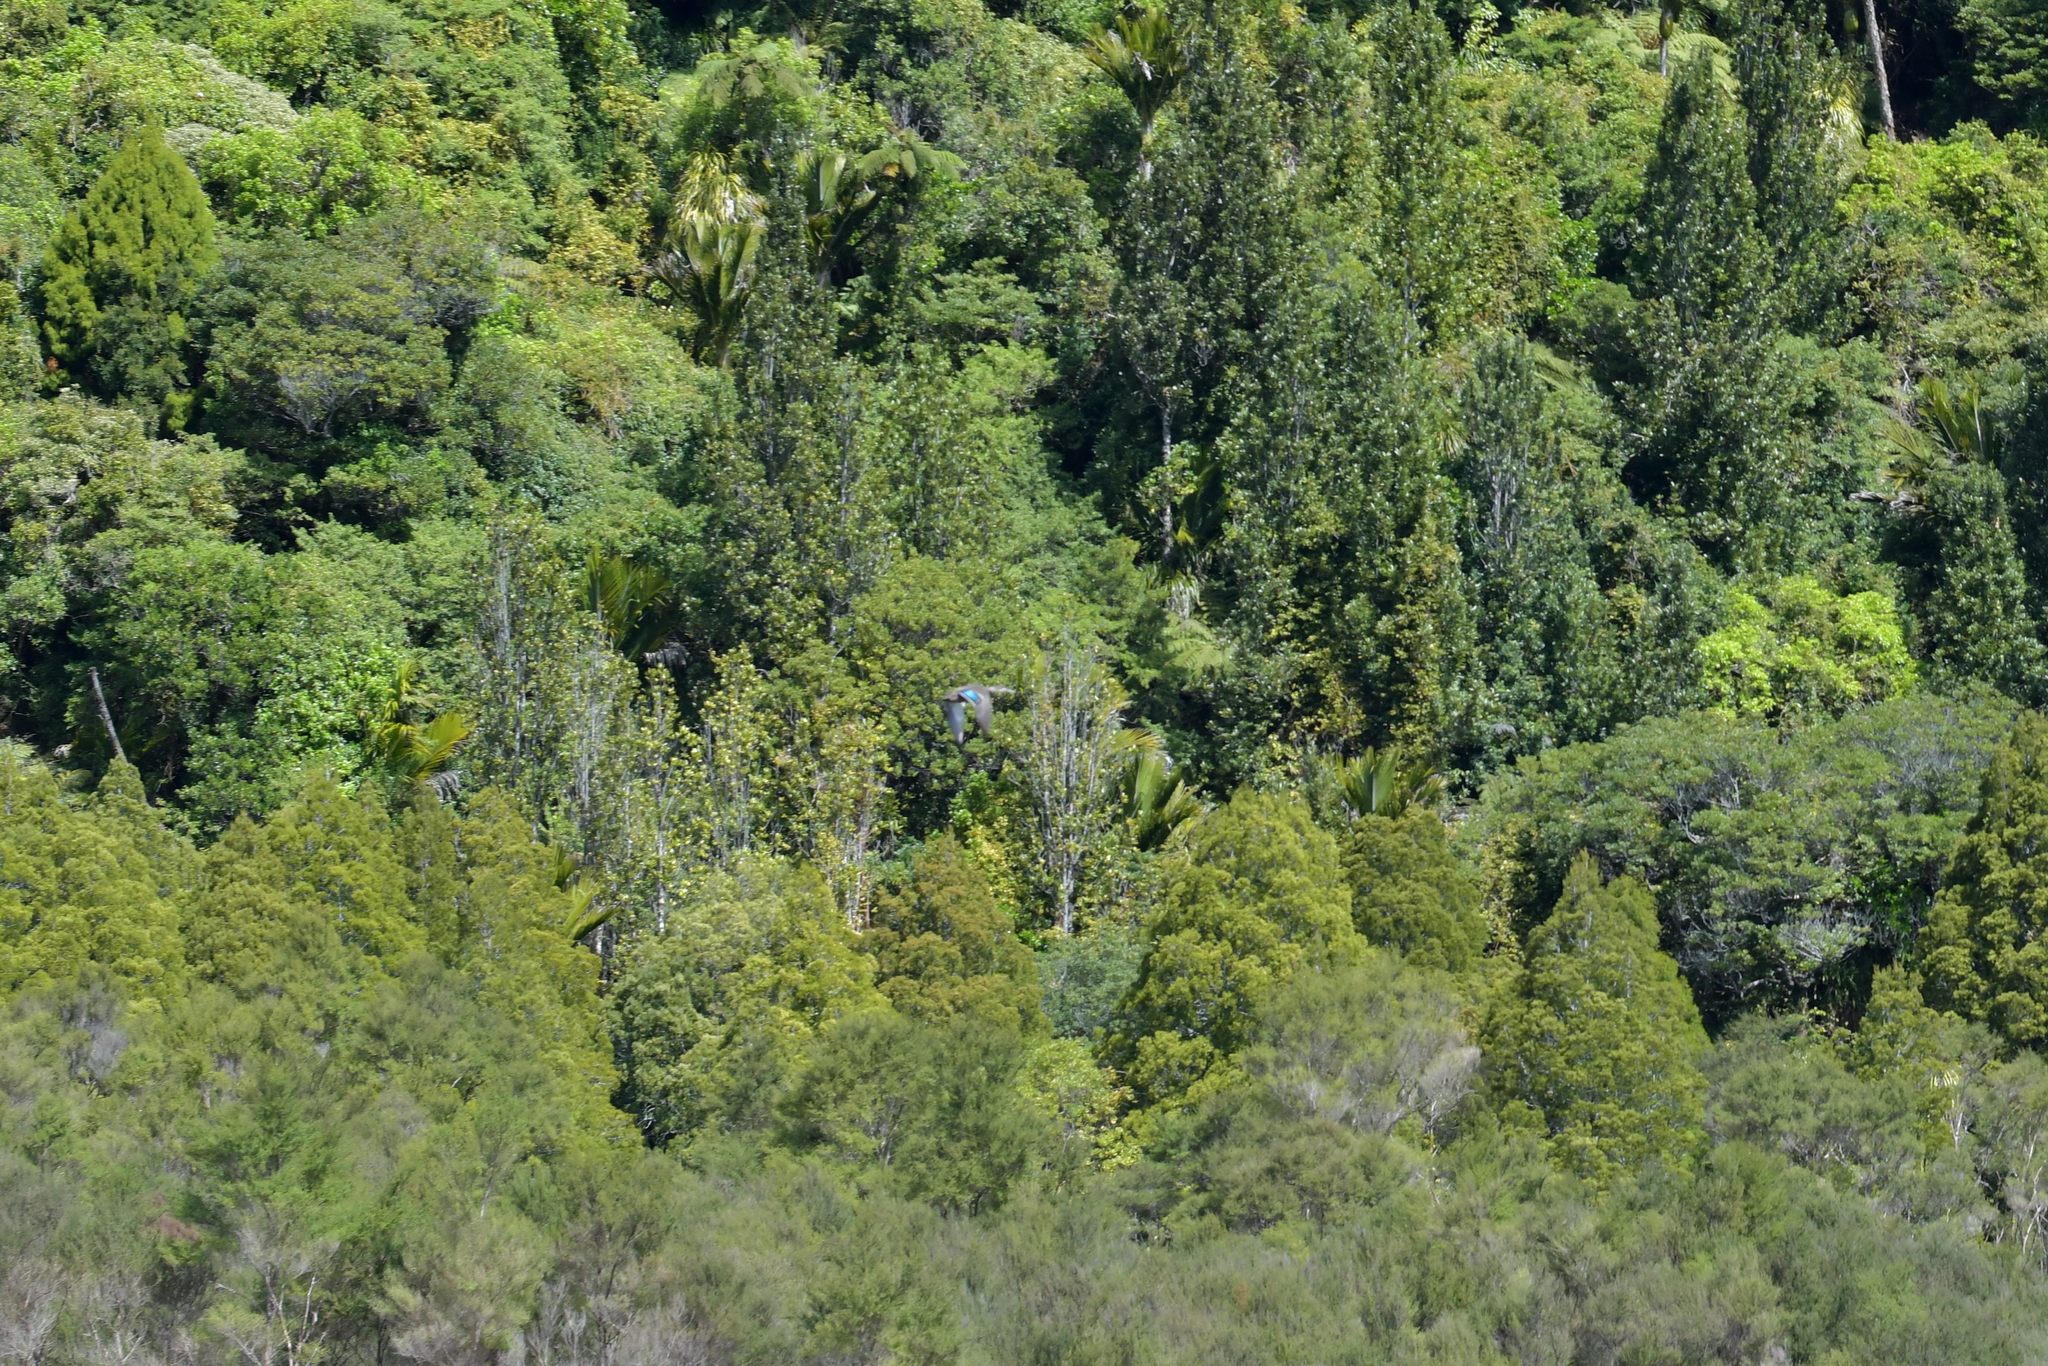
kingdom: Animalia
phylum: Chordata
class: Aves
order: Anseriformes
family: Anatidae
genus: Anas
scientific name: Anas
